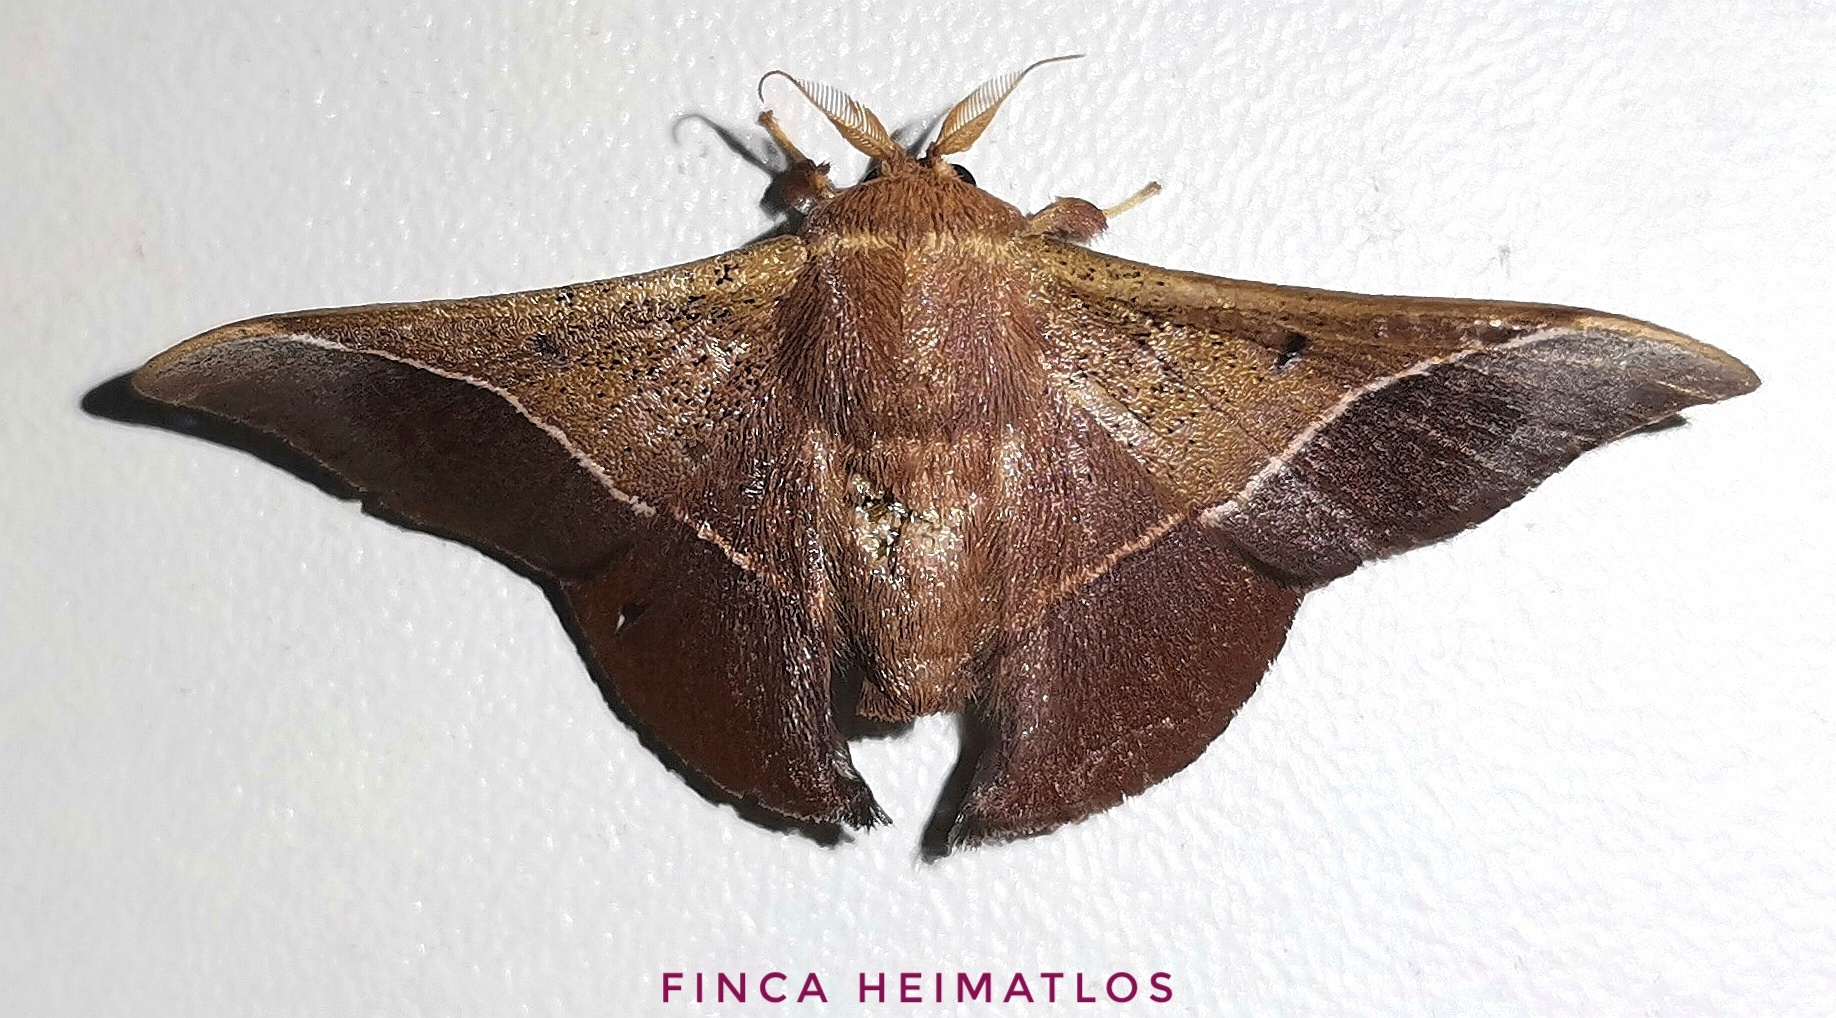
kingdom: Animalia
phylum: Arthropoda
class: Insecta
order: Lepidoptera
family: Mimallonidae
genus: Alheita
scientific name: Alheita caudina
